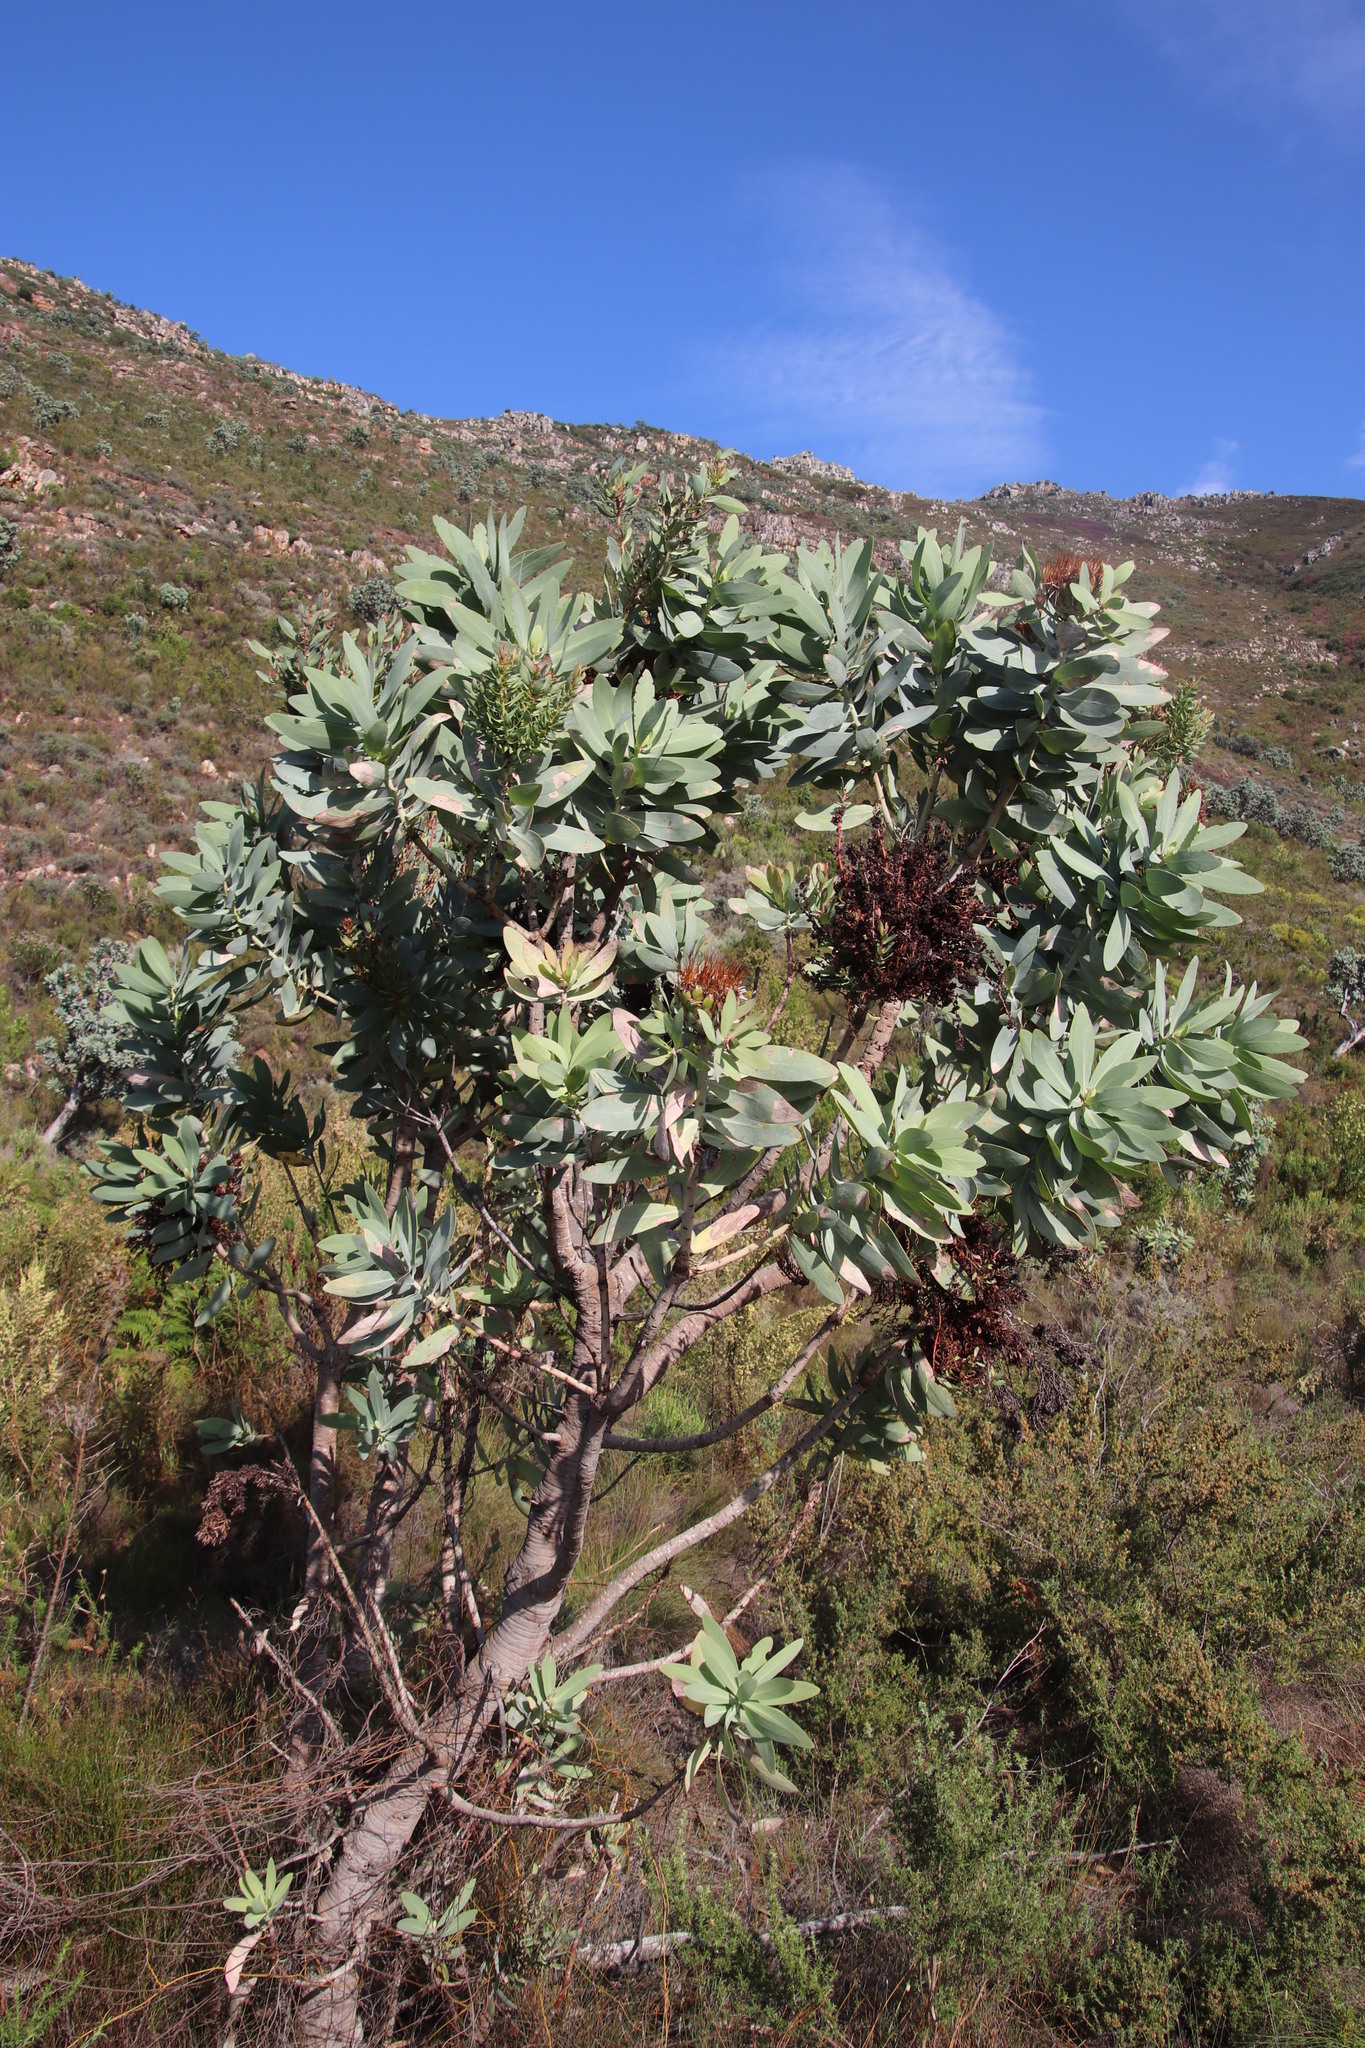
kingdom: Plantae
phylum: Tracheophyta
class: Magnoliopsida
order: Proteales
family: Proteaceae
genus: Protea
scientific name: Protea nitida
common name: Tree protea
